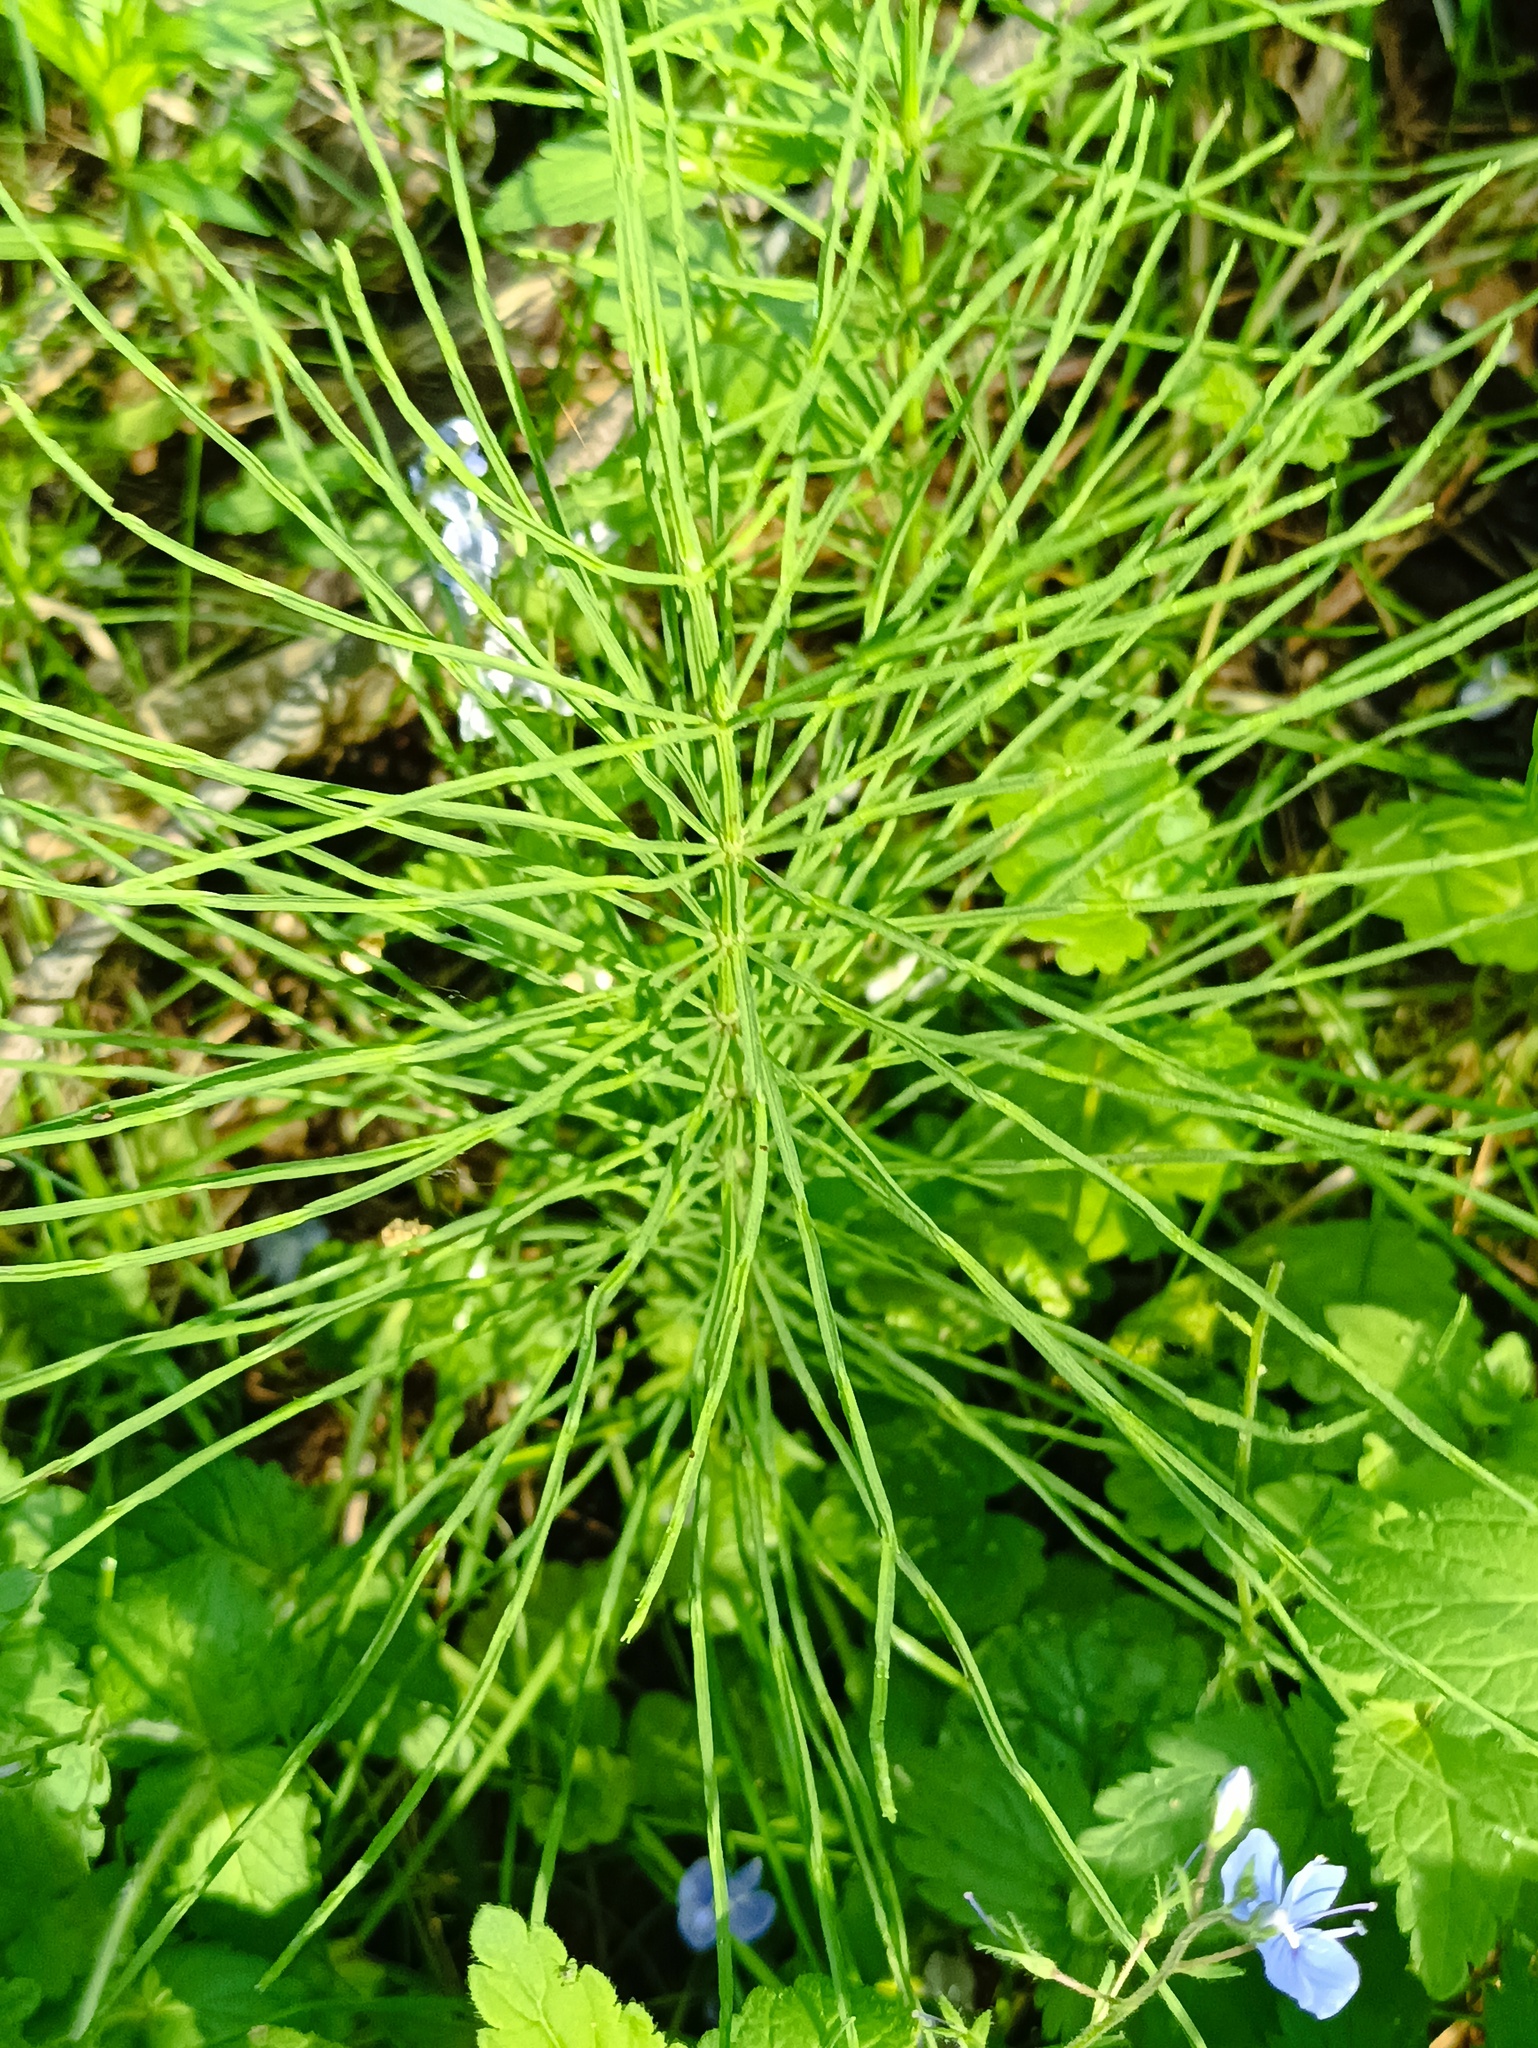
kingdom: Plantae
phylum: Tracheophyta
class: Polypodiopsida
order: Equisetales
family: Equisetaceae
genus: Equisetum
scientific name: Equisetum arvense
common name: Field horsetail
